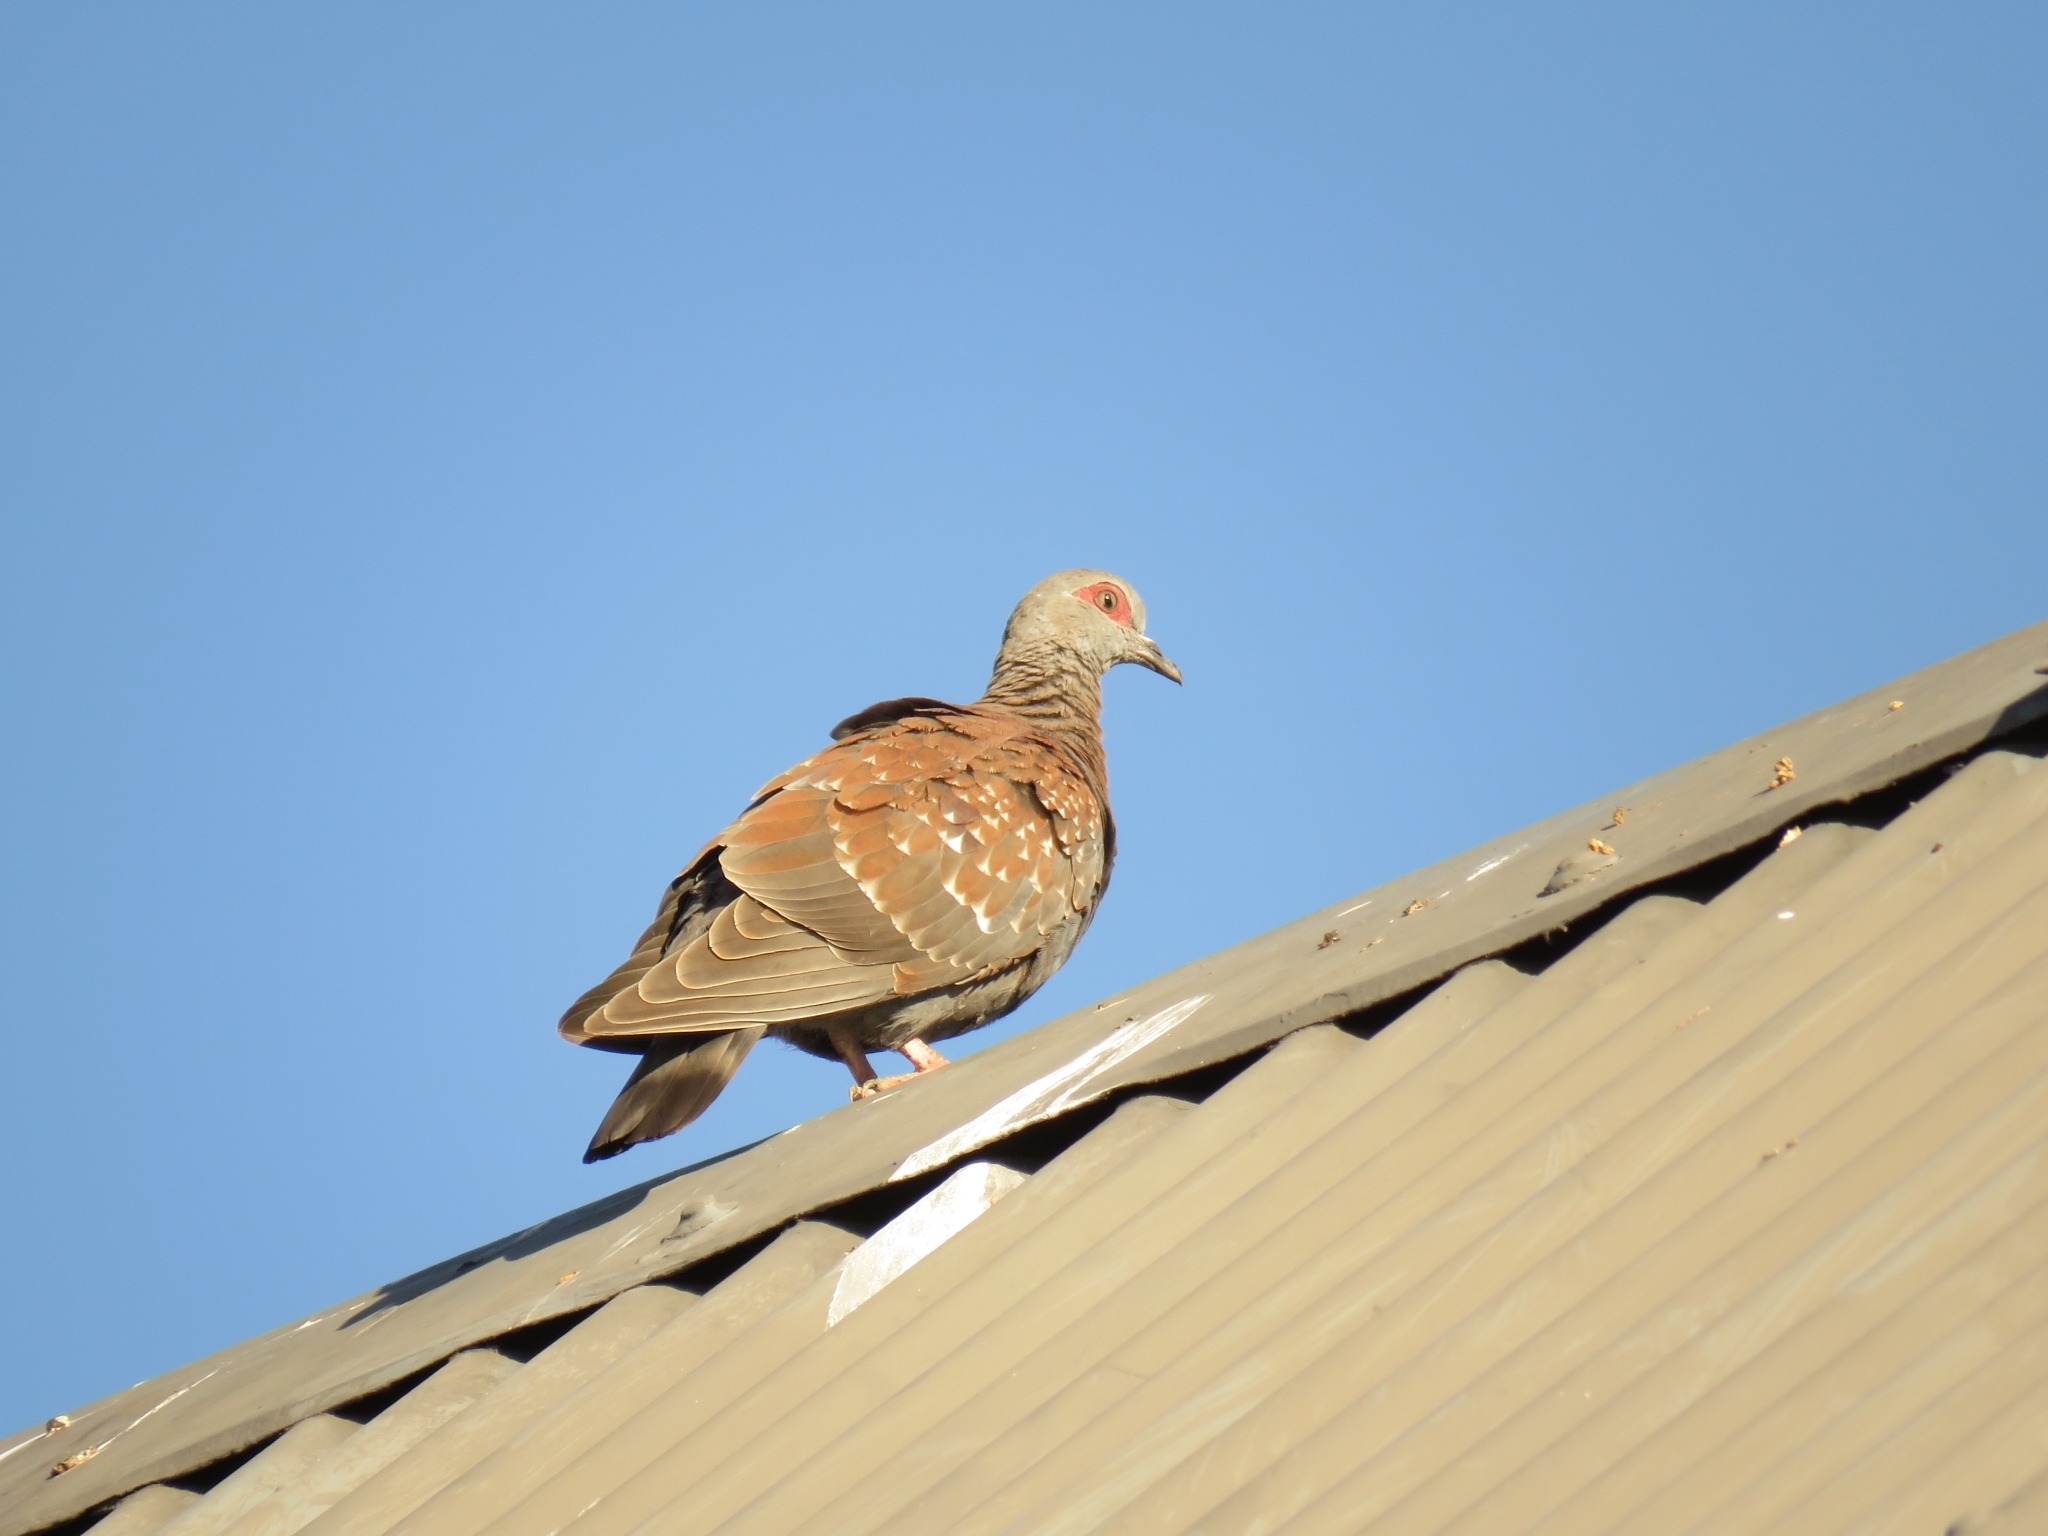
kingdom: Animalia
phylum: Chordata
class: Aves
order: Columbiformes
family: Columbidae
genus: Columba
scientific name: Columba guinea
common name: Speckled pigeon
